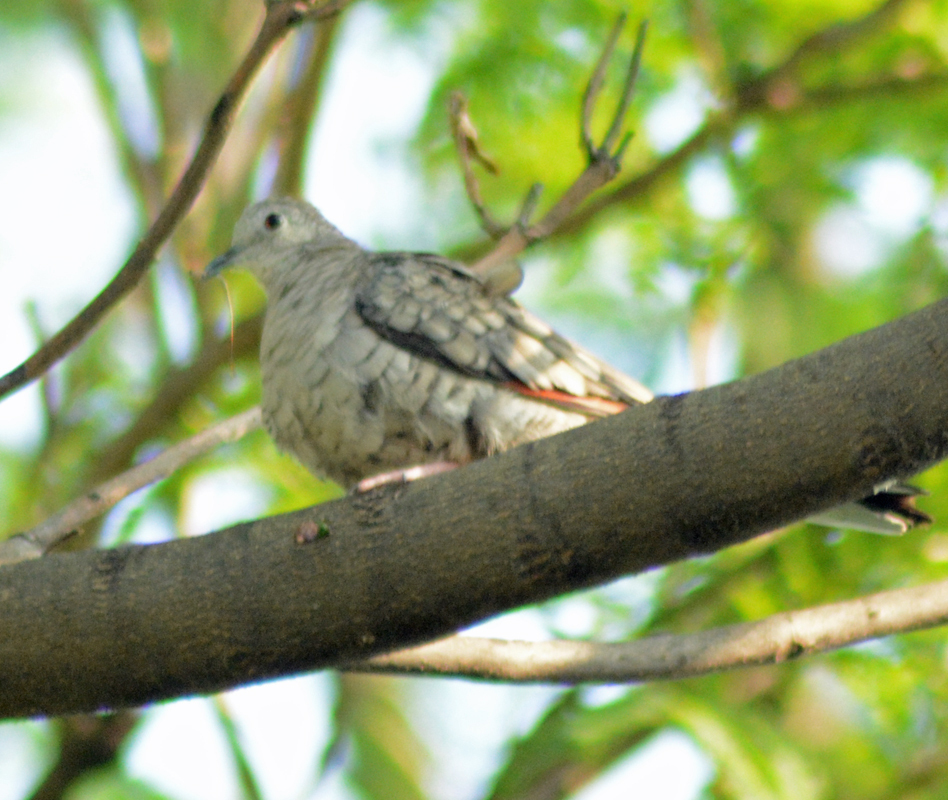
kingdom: Animalia
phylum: Chordata
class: Aves
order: Columbiformes
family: Columbidae
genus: Columbina
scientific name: Columbina inca
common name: Inca dove
